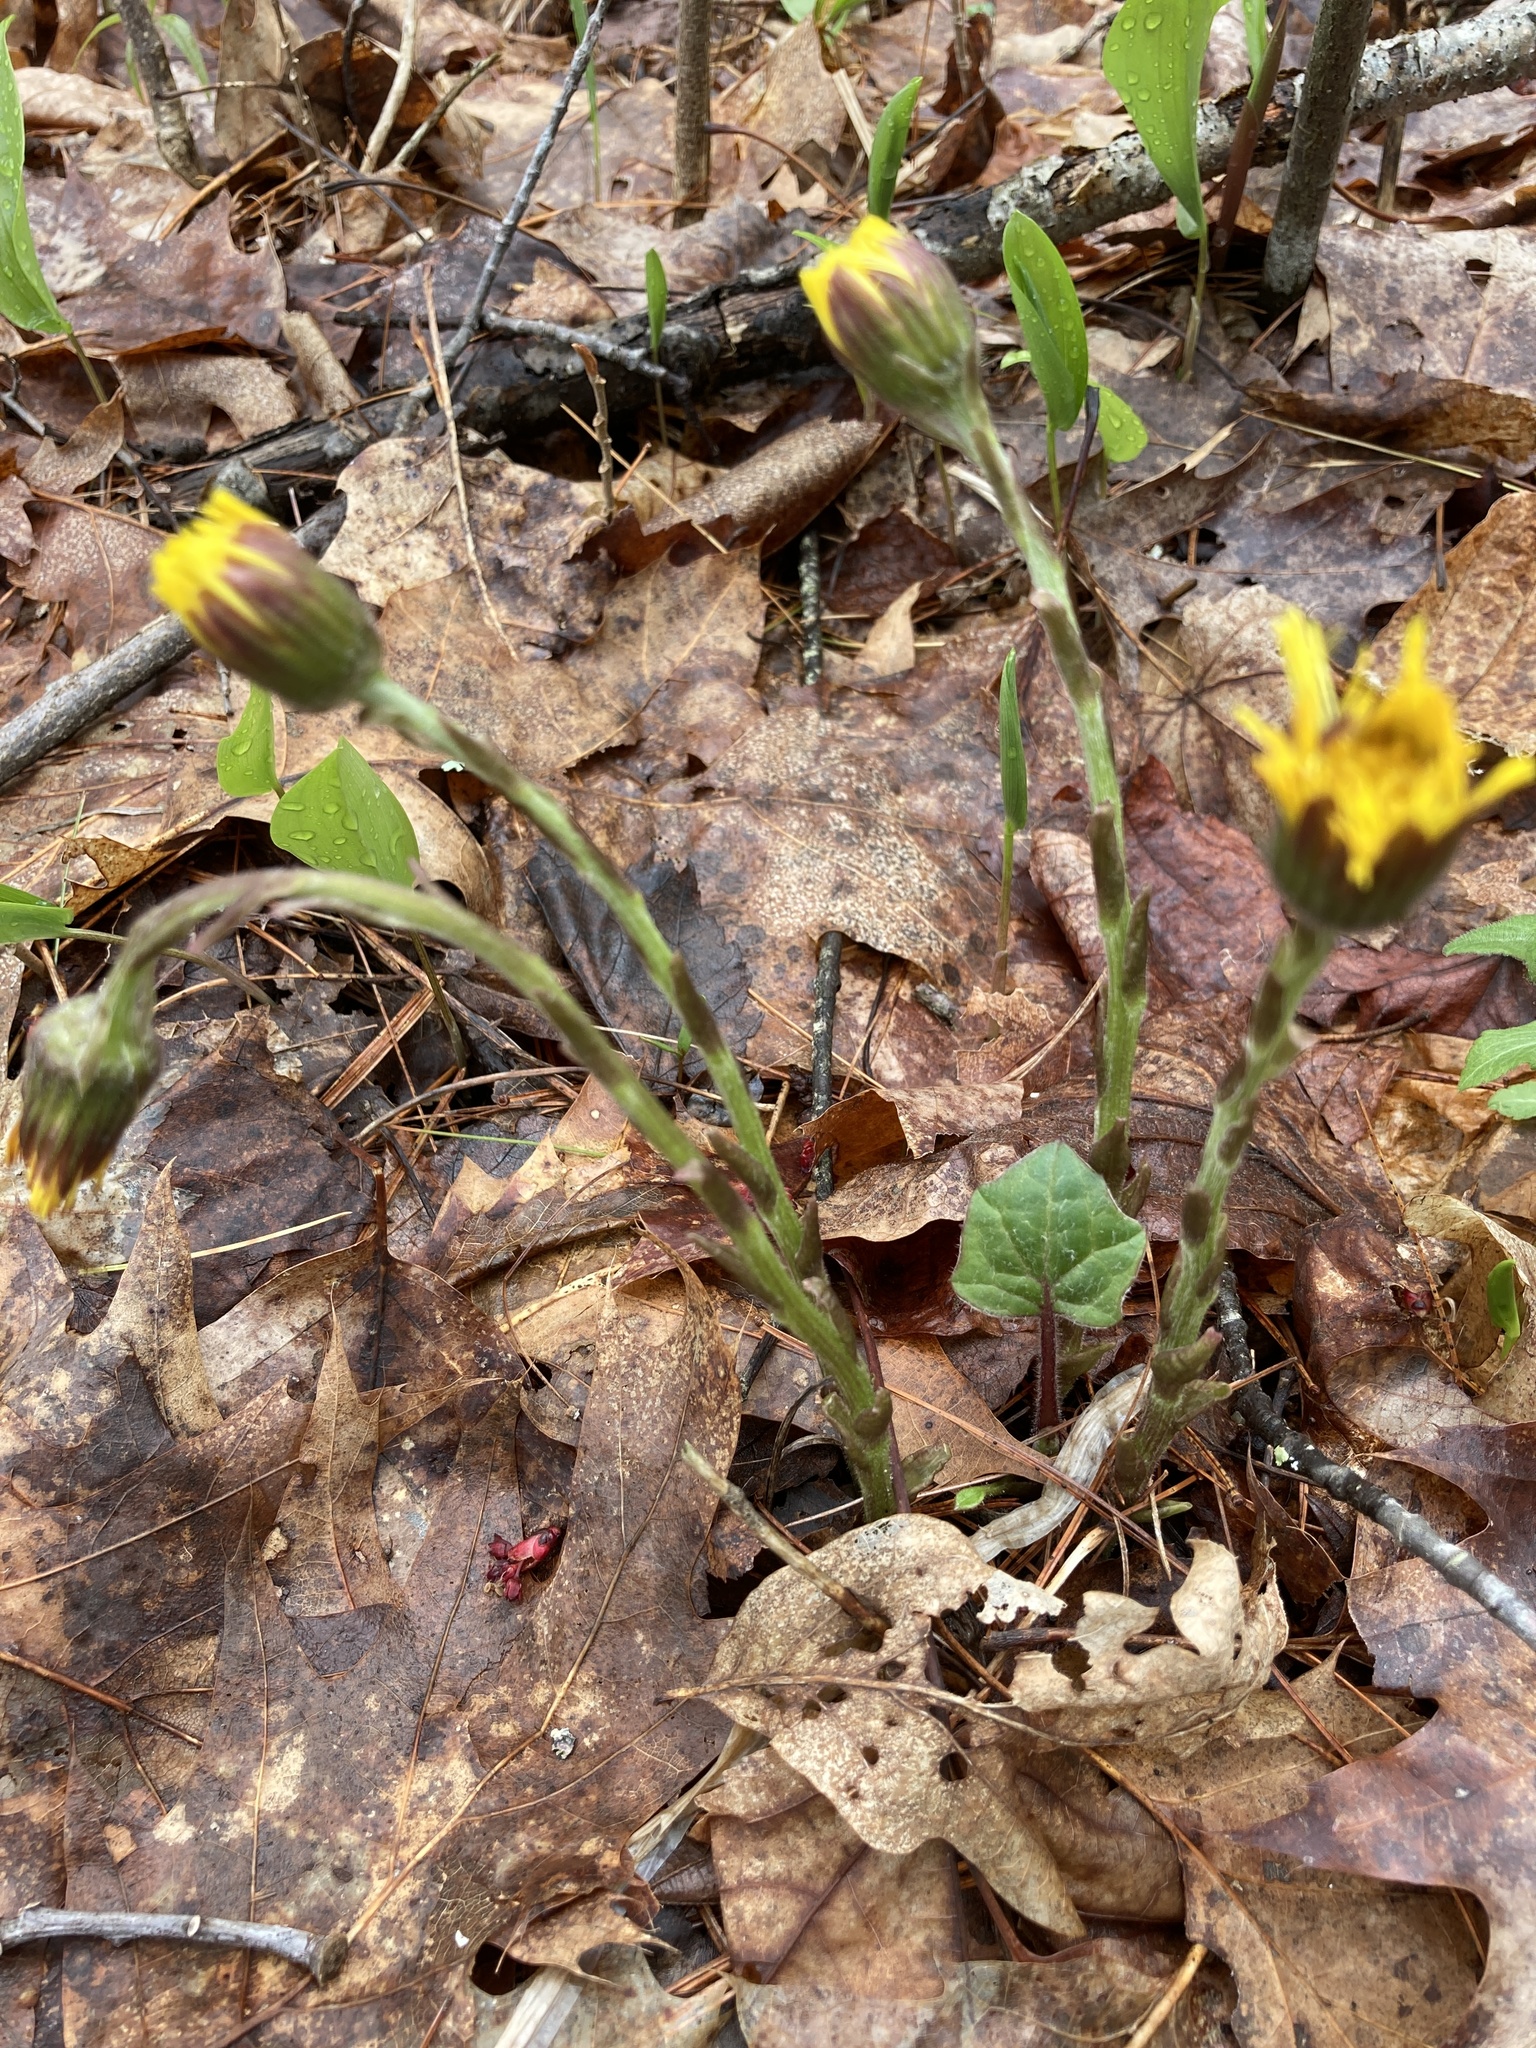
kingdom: Plantae
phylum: Tracheophyta
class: Magnoliopsida
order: Asterales
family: Asteraceae
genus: Tussilago
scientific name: Tussilago farfara
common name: Coltsfoot
